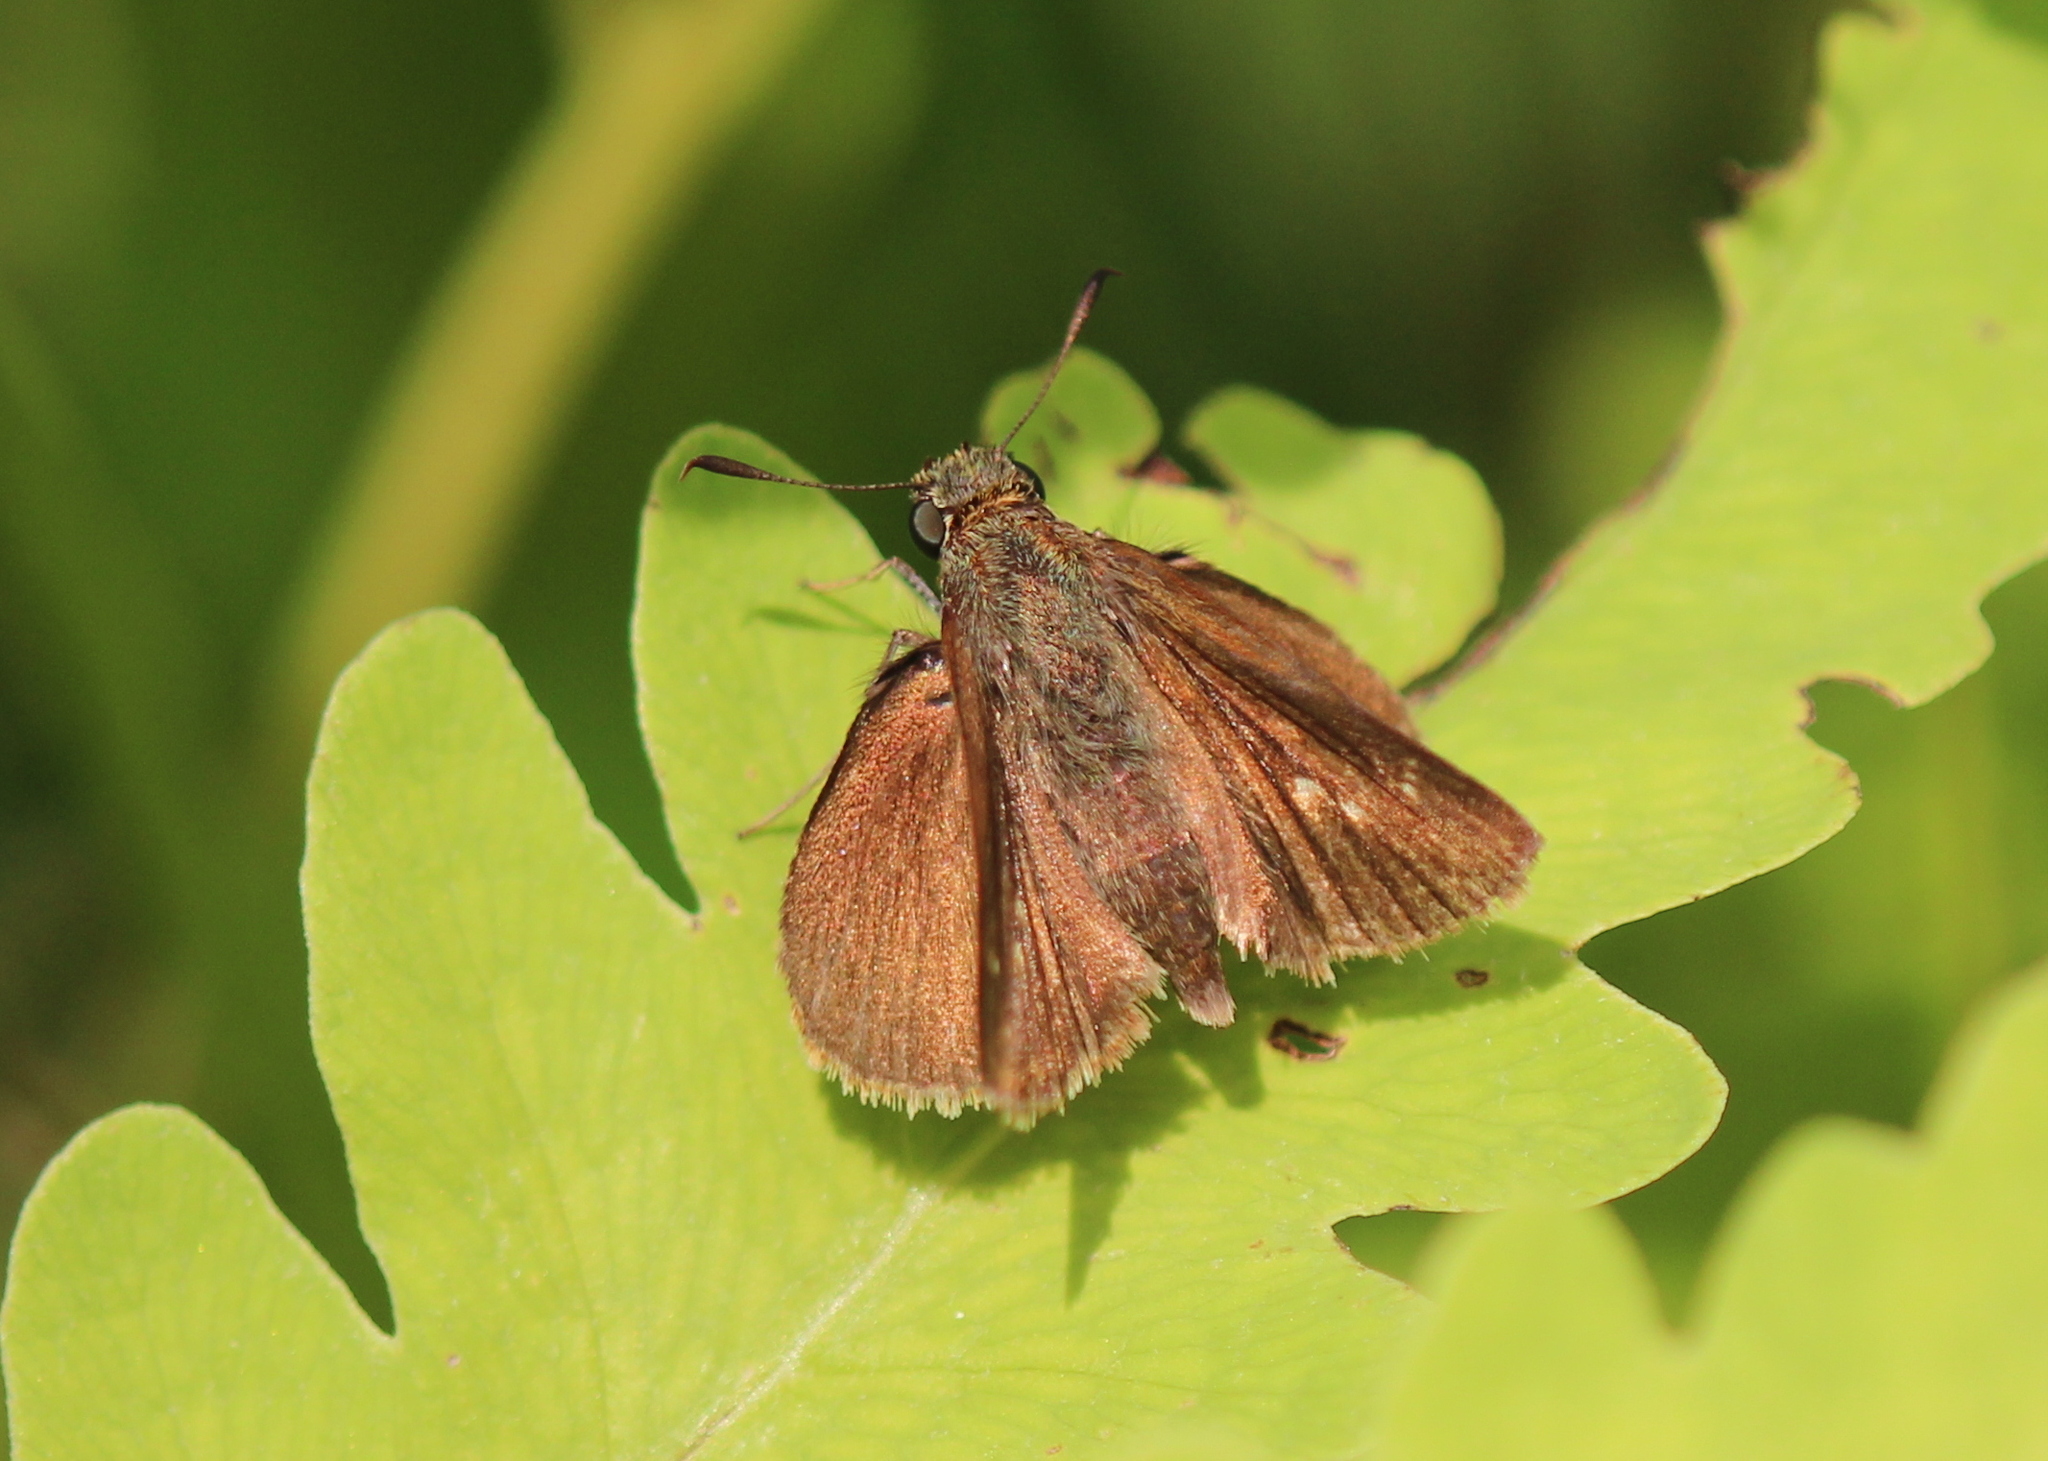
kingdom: Animalia
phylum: Arthropoda
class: Insecta
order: Lepidoptera
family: Hesperiidae
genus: Euphyes
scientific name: Euphyes vestris
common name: Dun skipper
